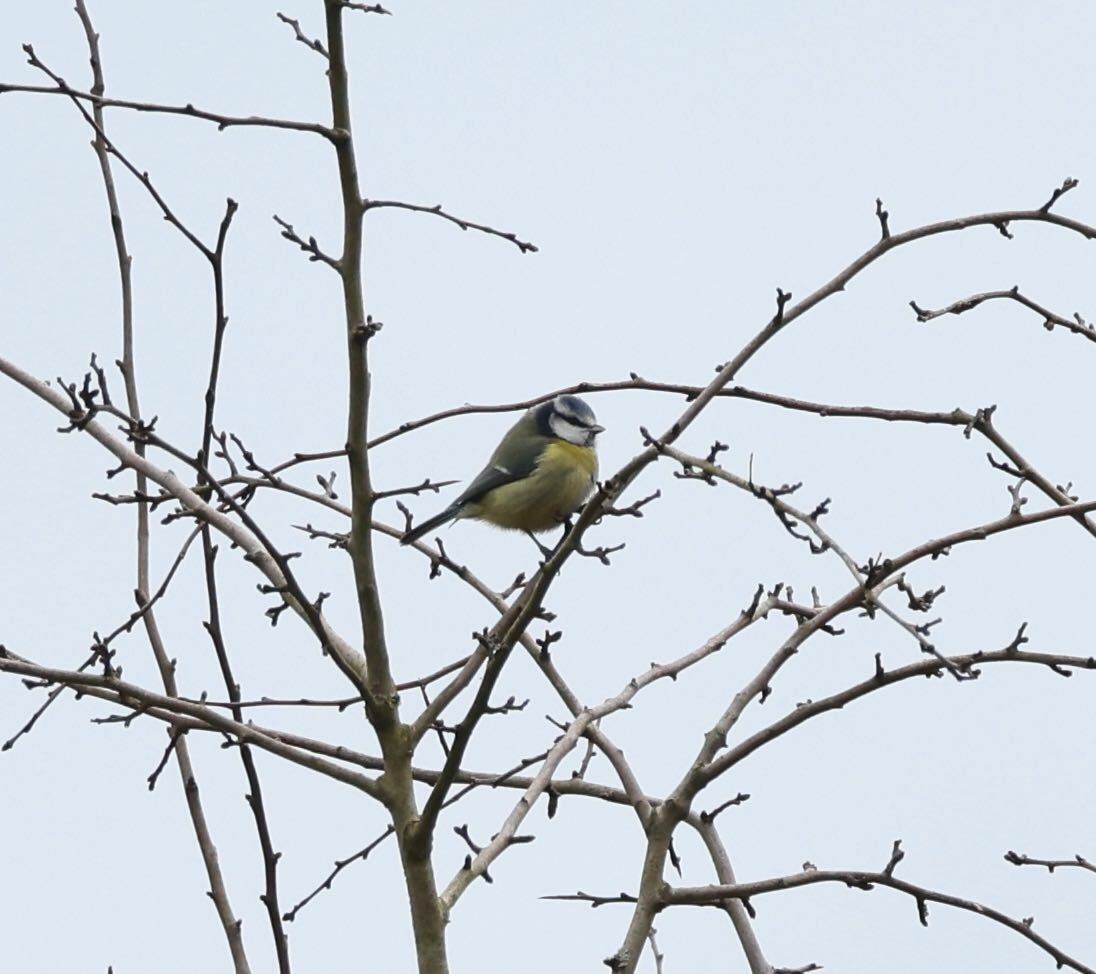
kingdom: Animalia
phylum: Chordata
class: Aves
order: Passeriformes
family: Paridae
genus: Cyanistes
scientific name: Cyanistes caeruleus
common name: Eurasian blue tit
